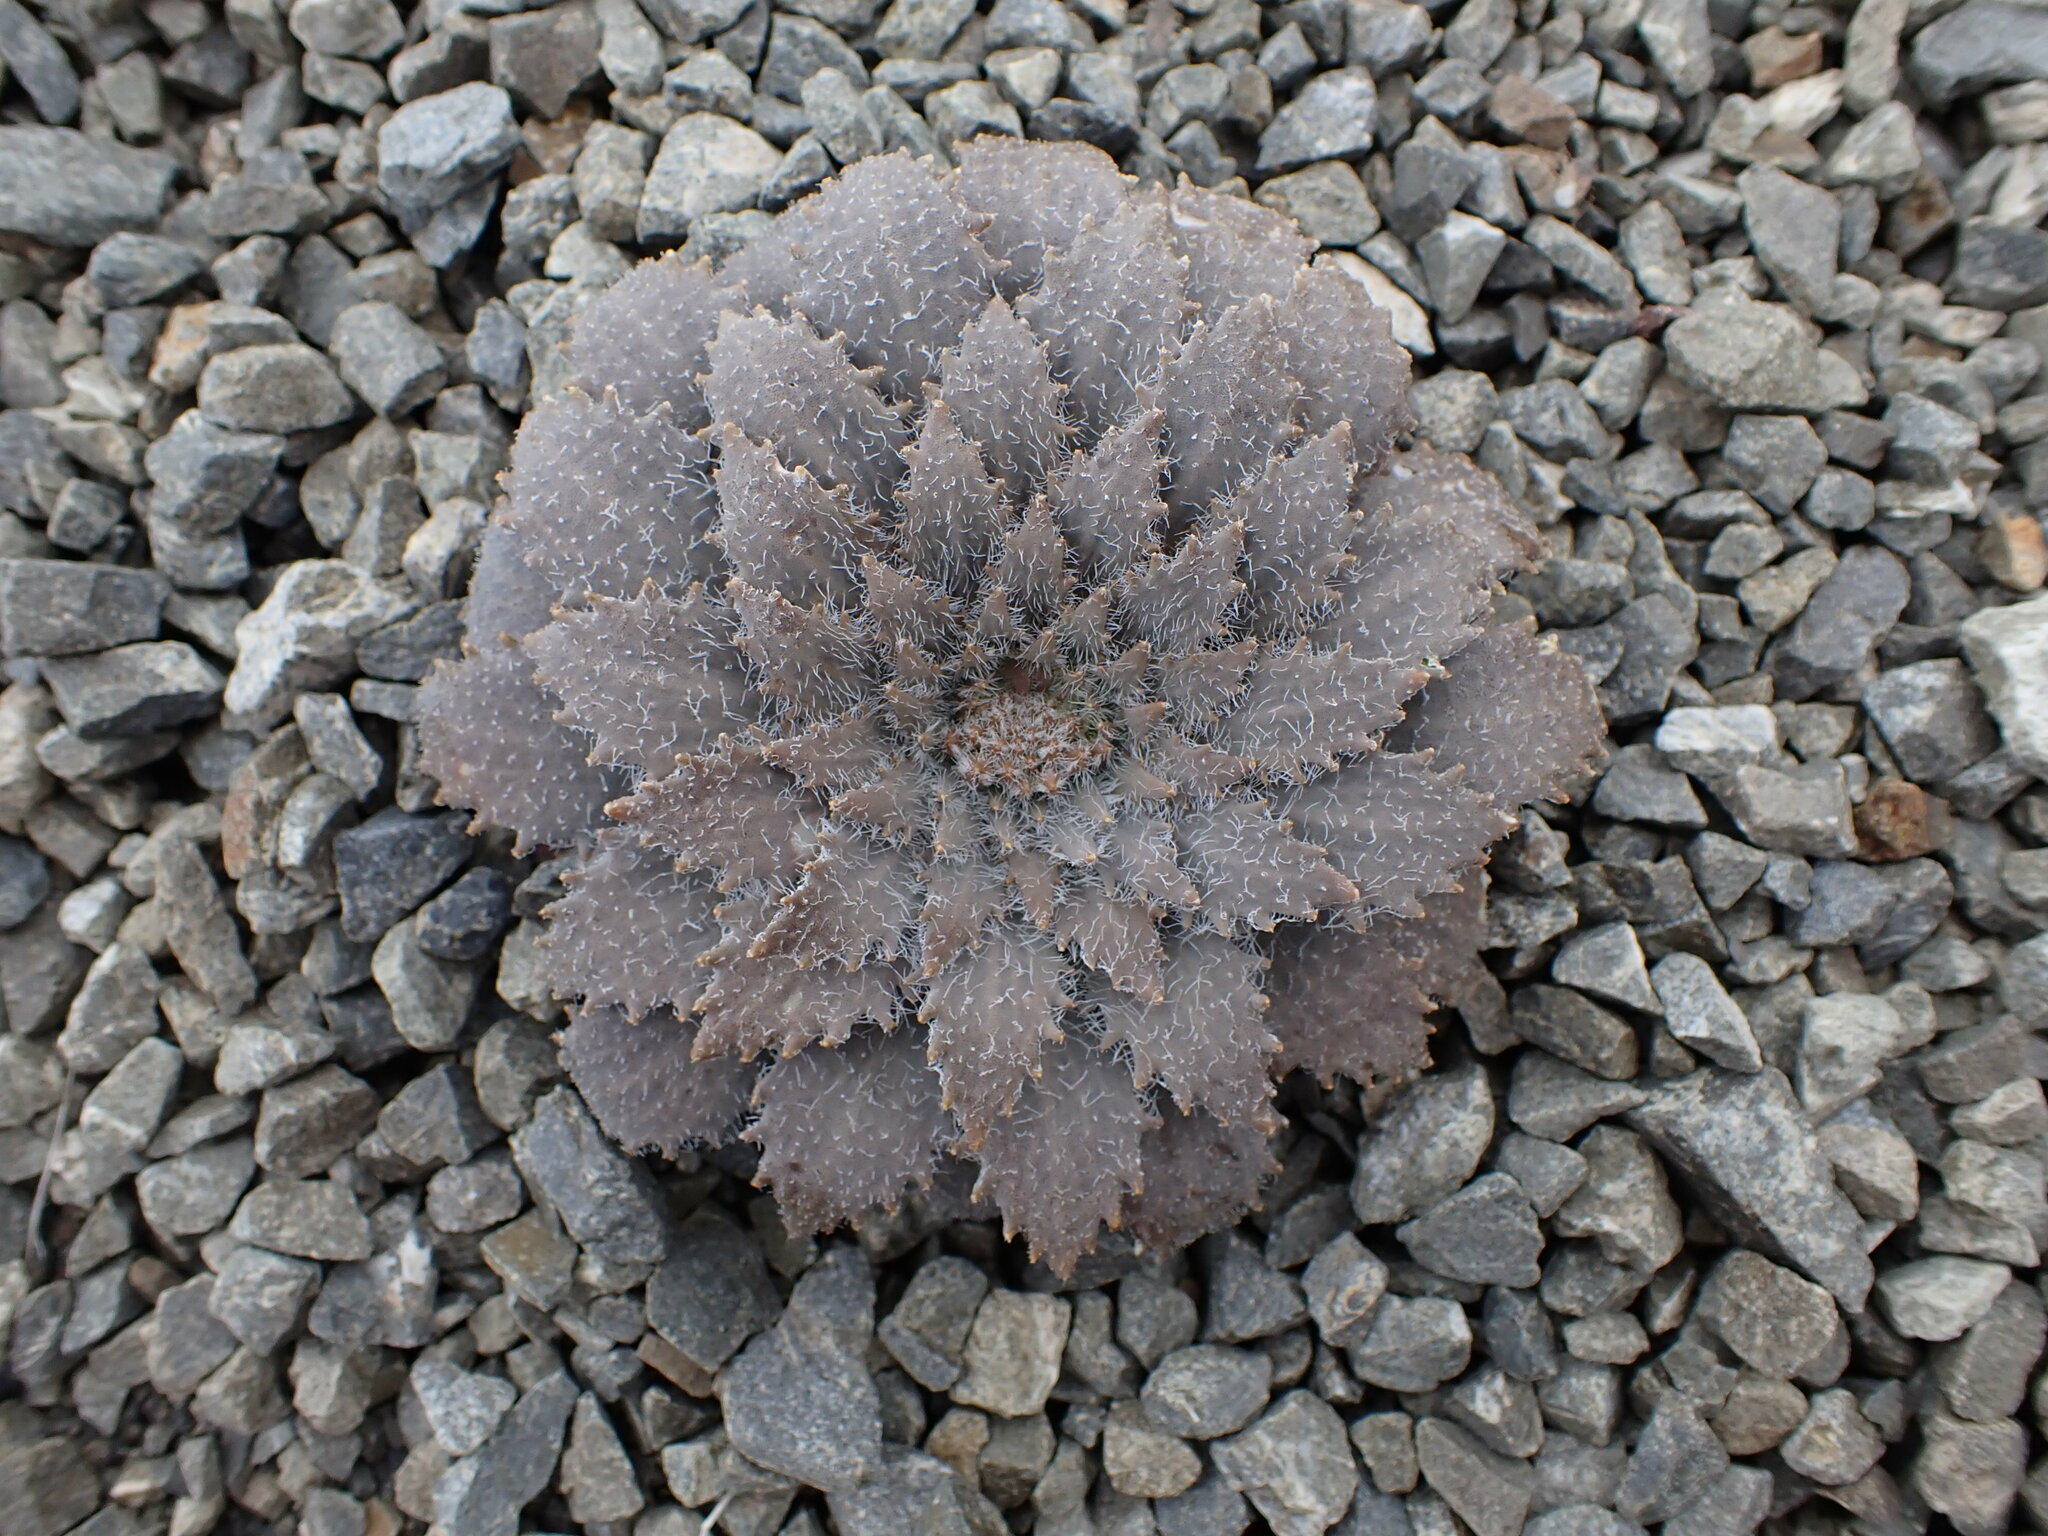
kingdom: Plantae
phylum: Tracheophyta
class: Magnoliopsida
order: Brassicales
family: Brassicaceae
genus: Notothlaspi
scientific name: Notothlaspi rosulatum
